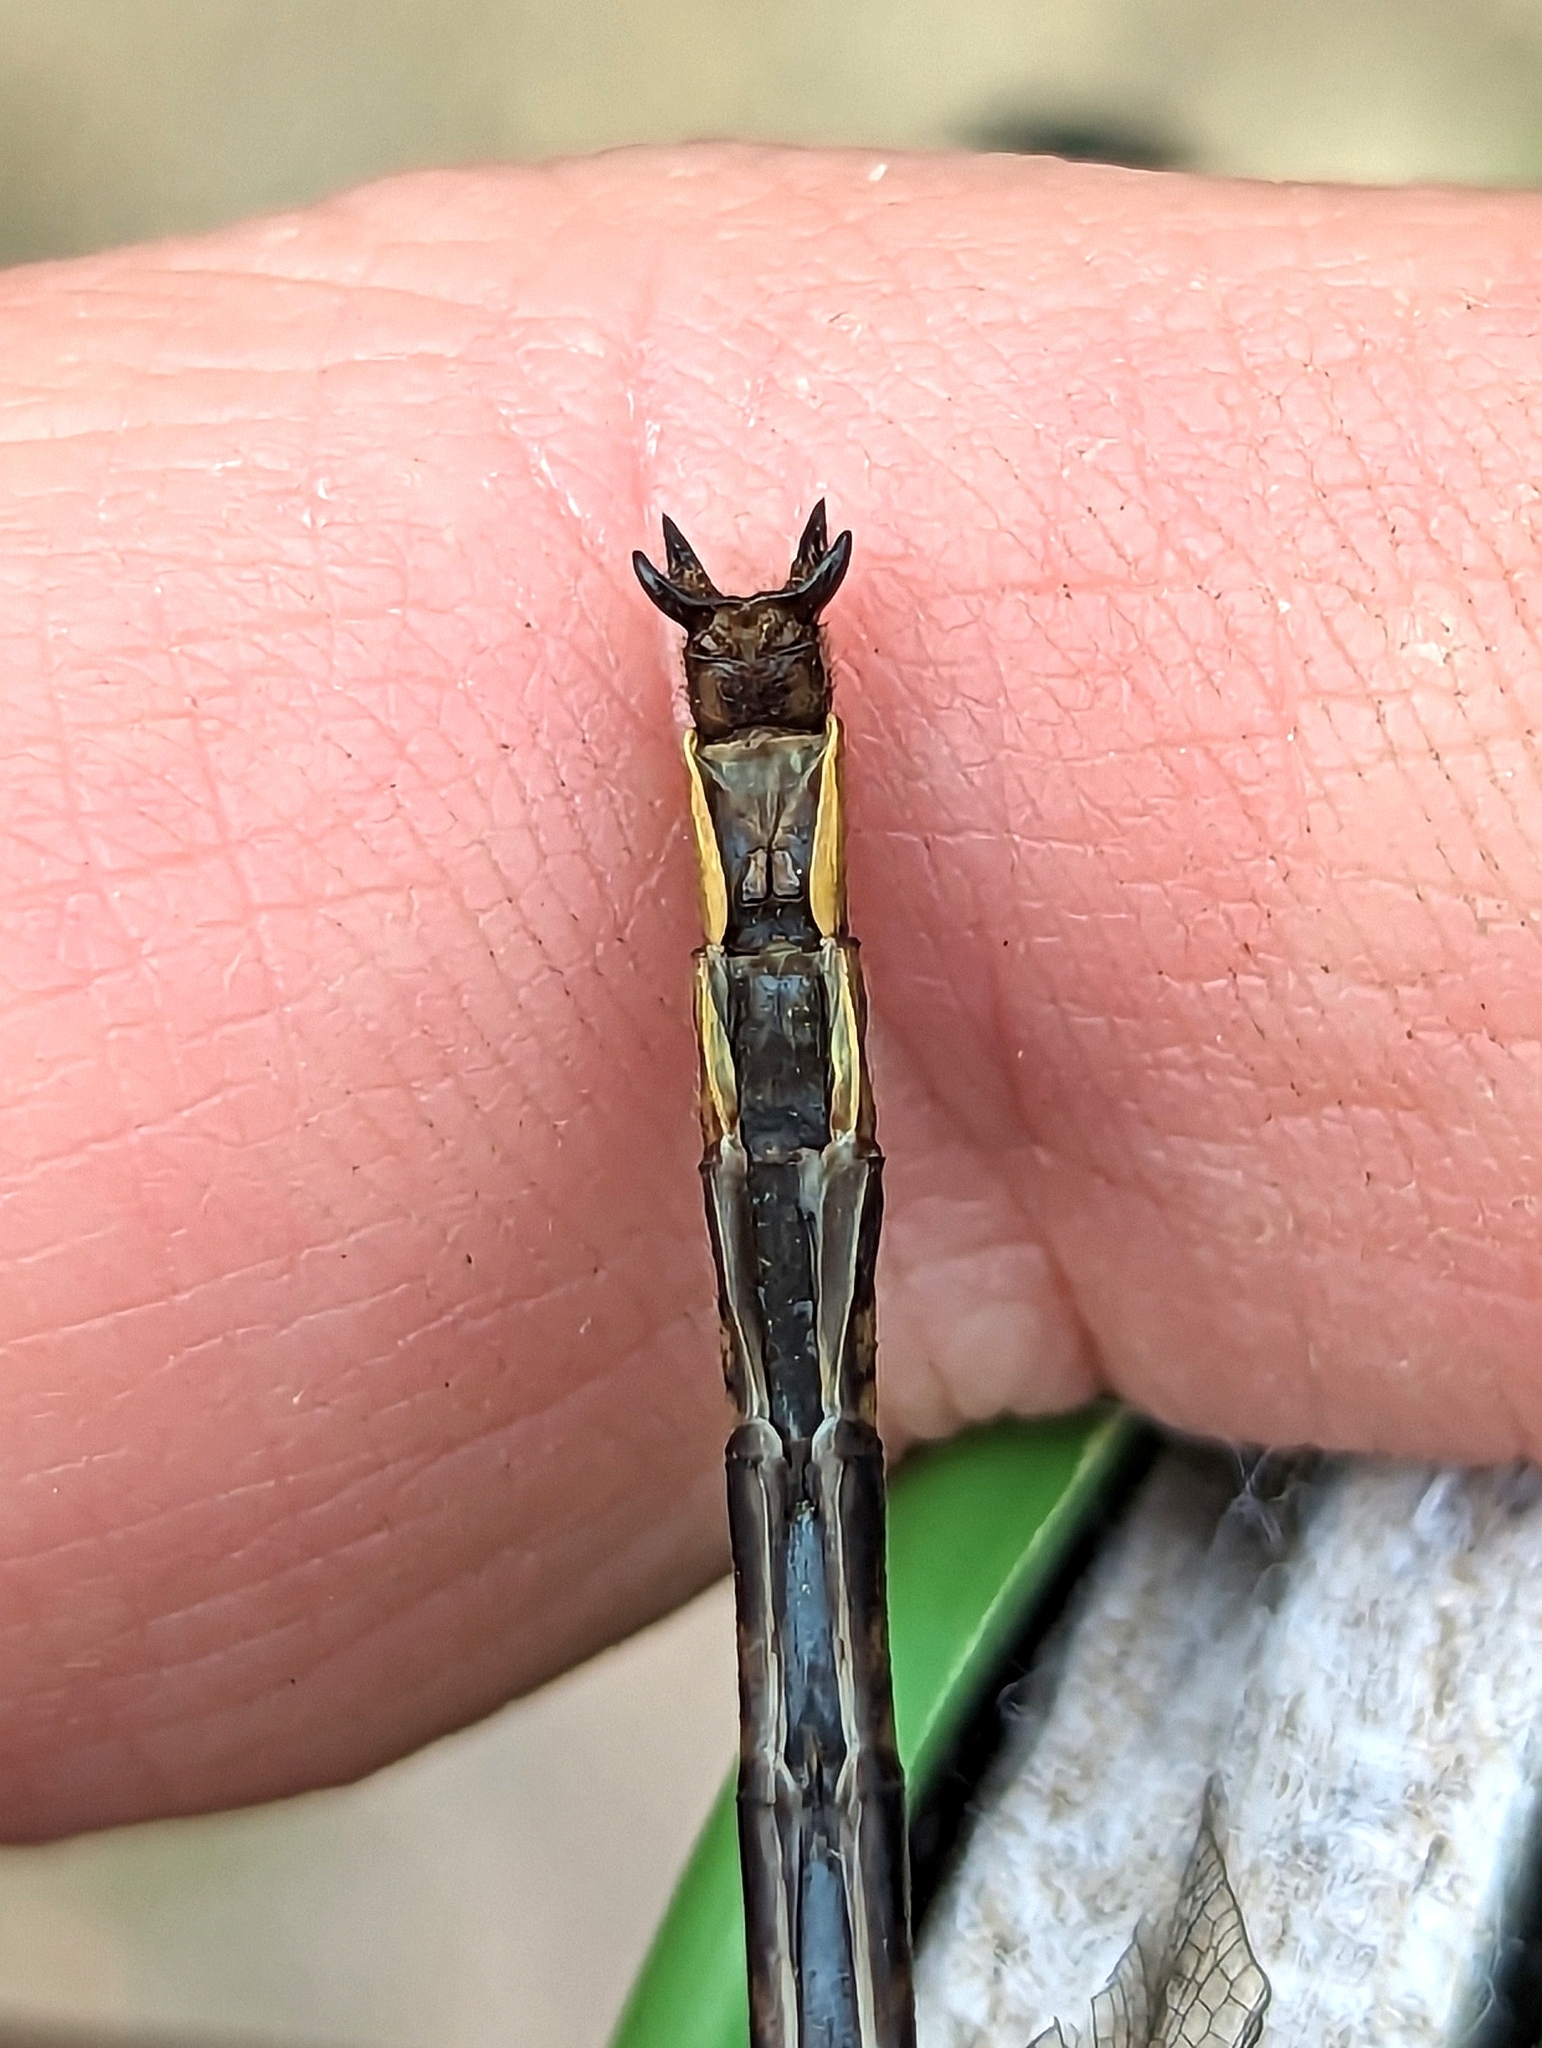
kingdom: Animalia
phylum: Arthropoda
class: Insecta
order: Odonata
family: Gomphidae
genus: Phanogomphus
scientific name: Phanogomphus spicatus
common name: Dusky clubtail
